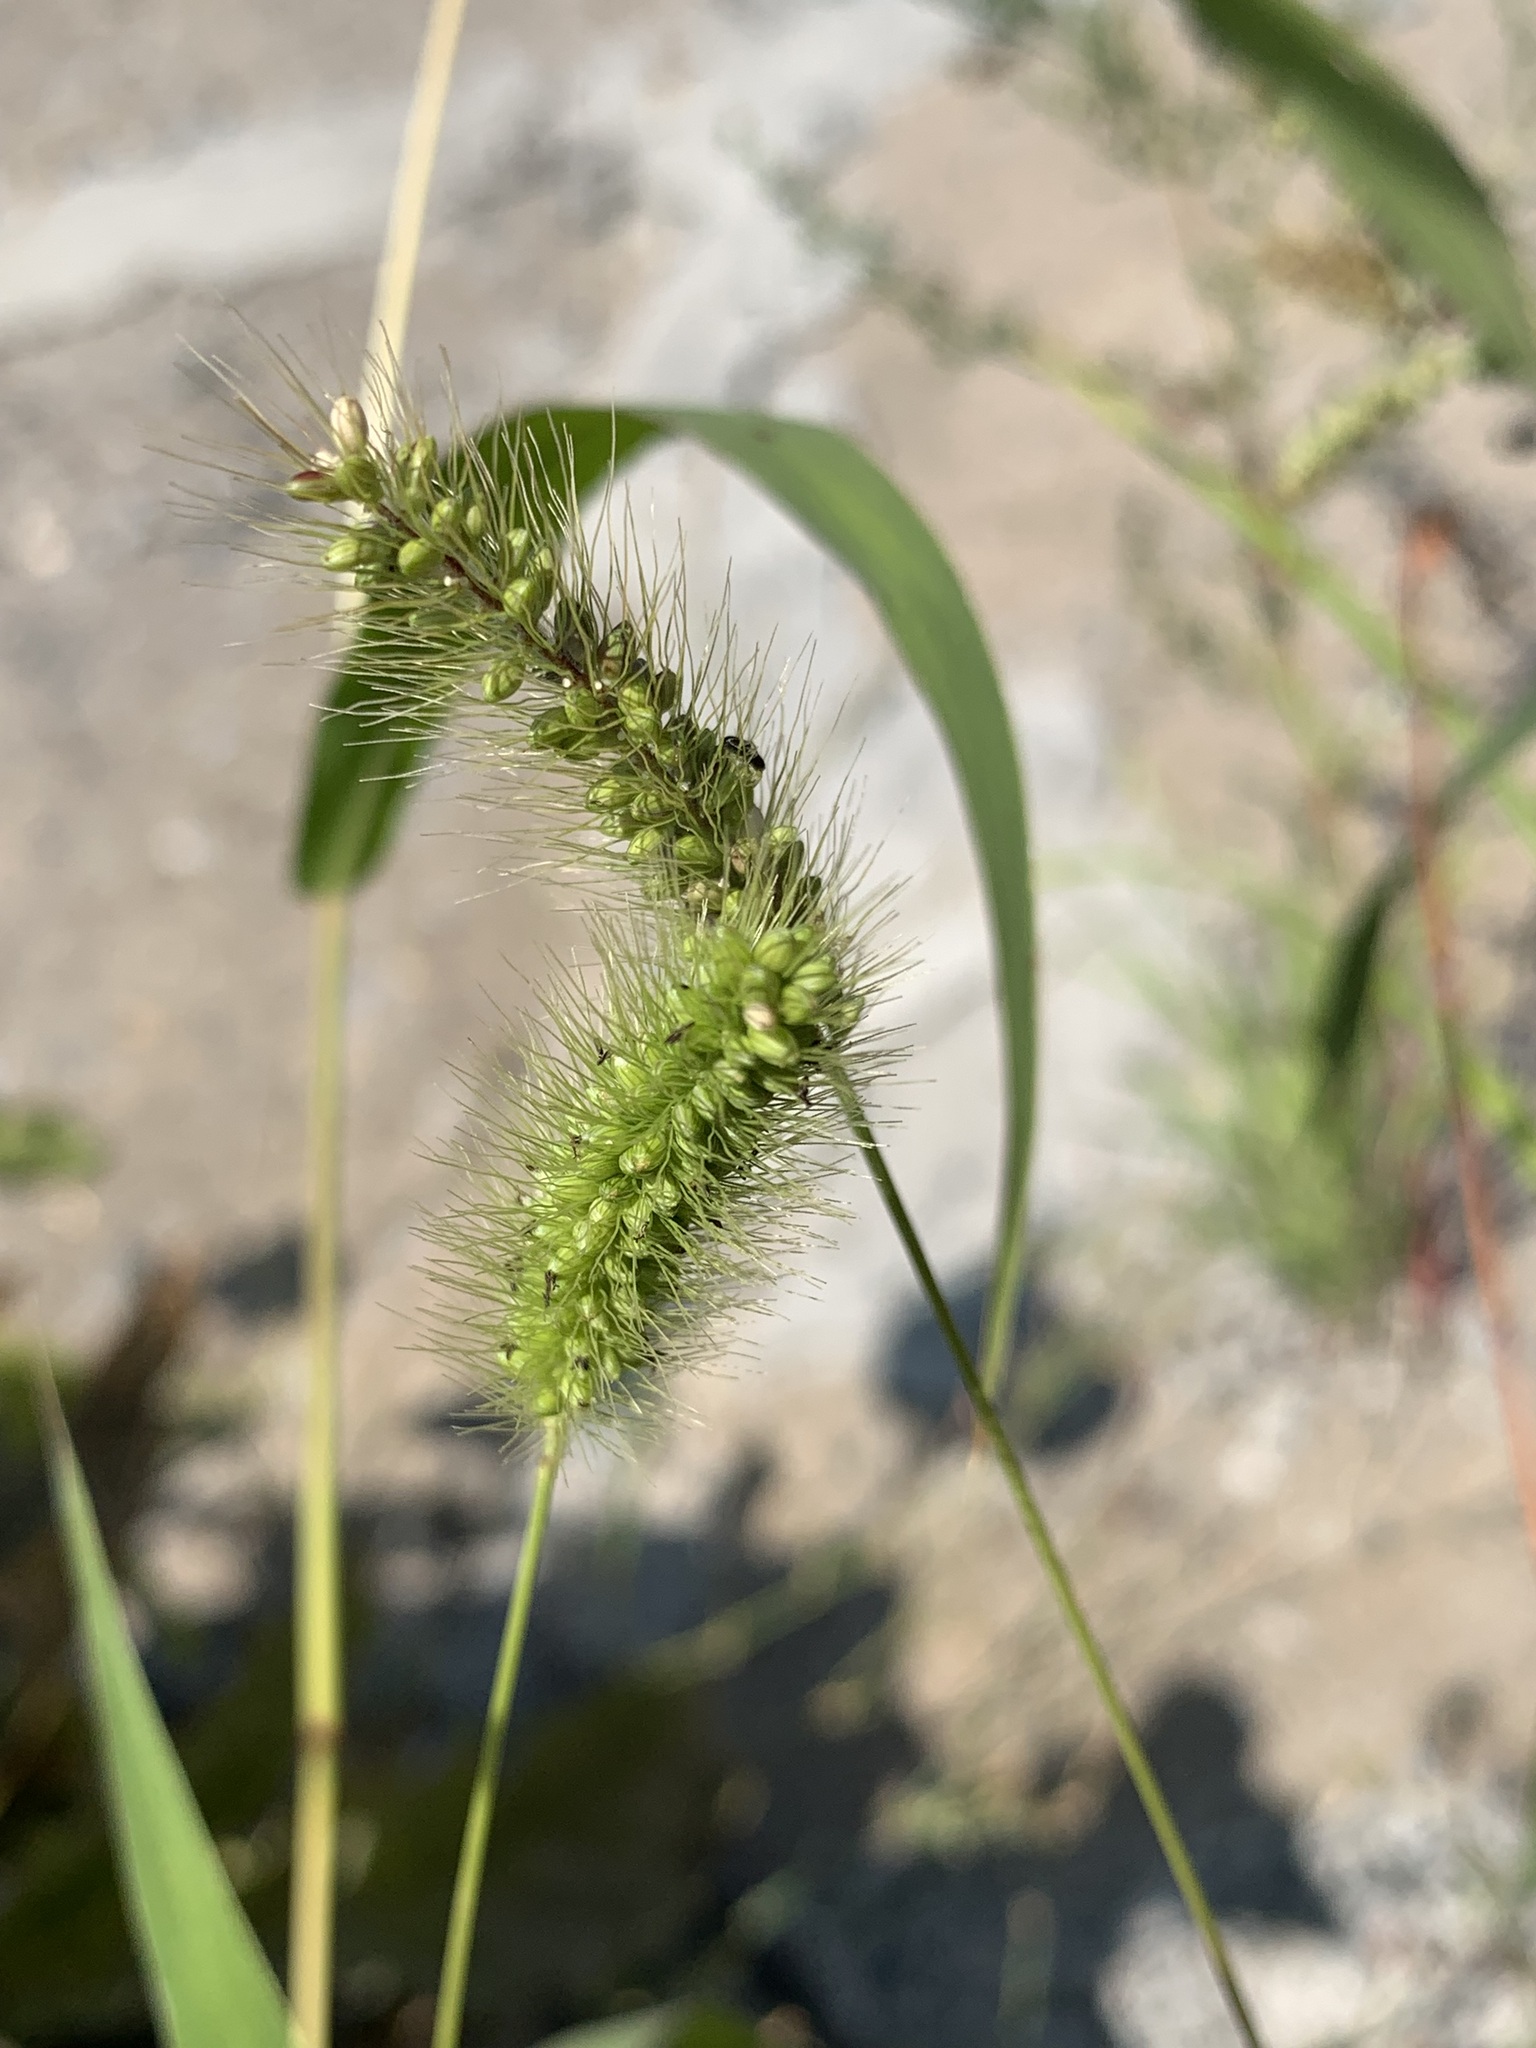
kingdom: Plantae
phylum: Tracheophyta
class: Liliopsida
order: Poales
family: Poaceae
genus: Setaria
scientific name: Setaria viridis
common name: Green bristlegrass
